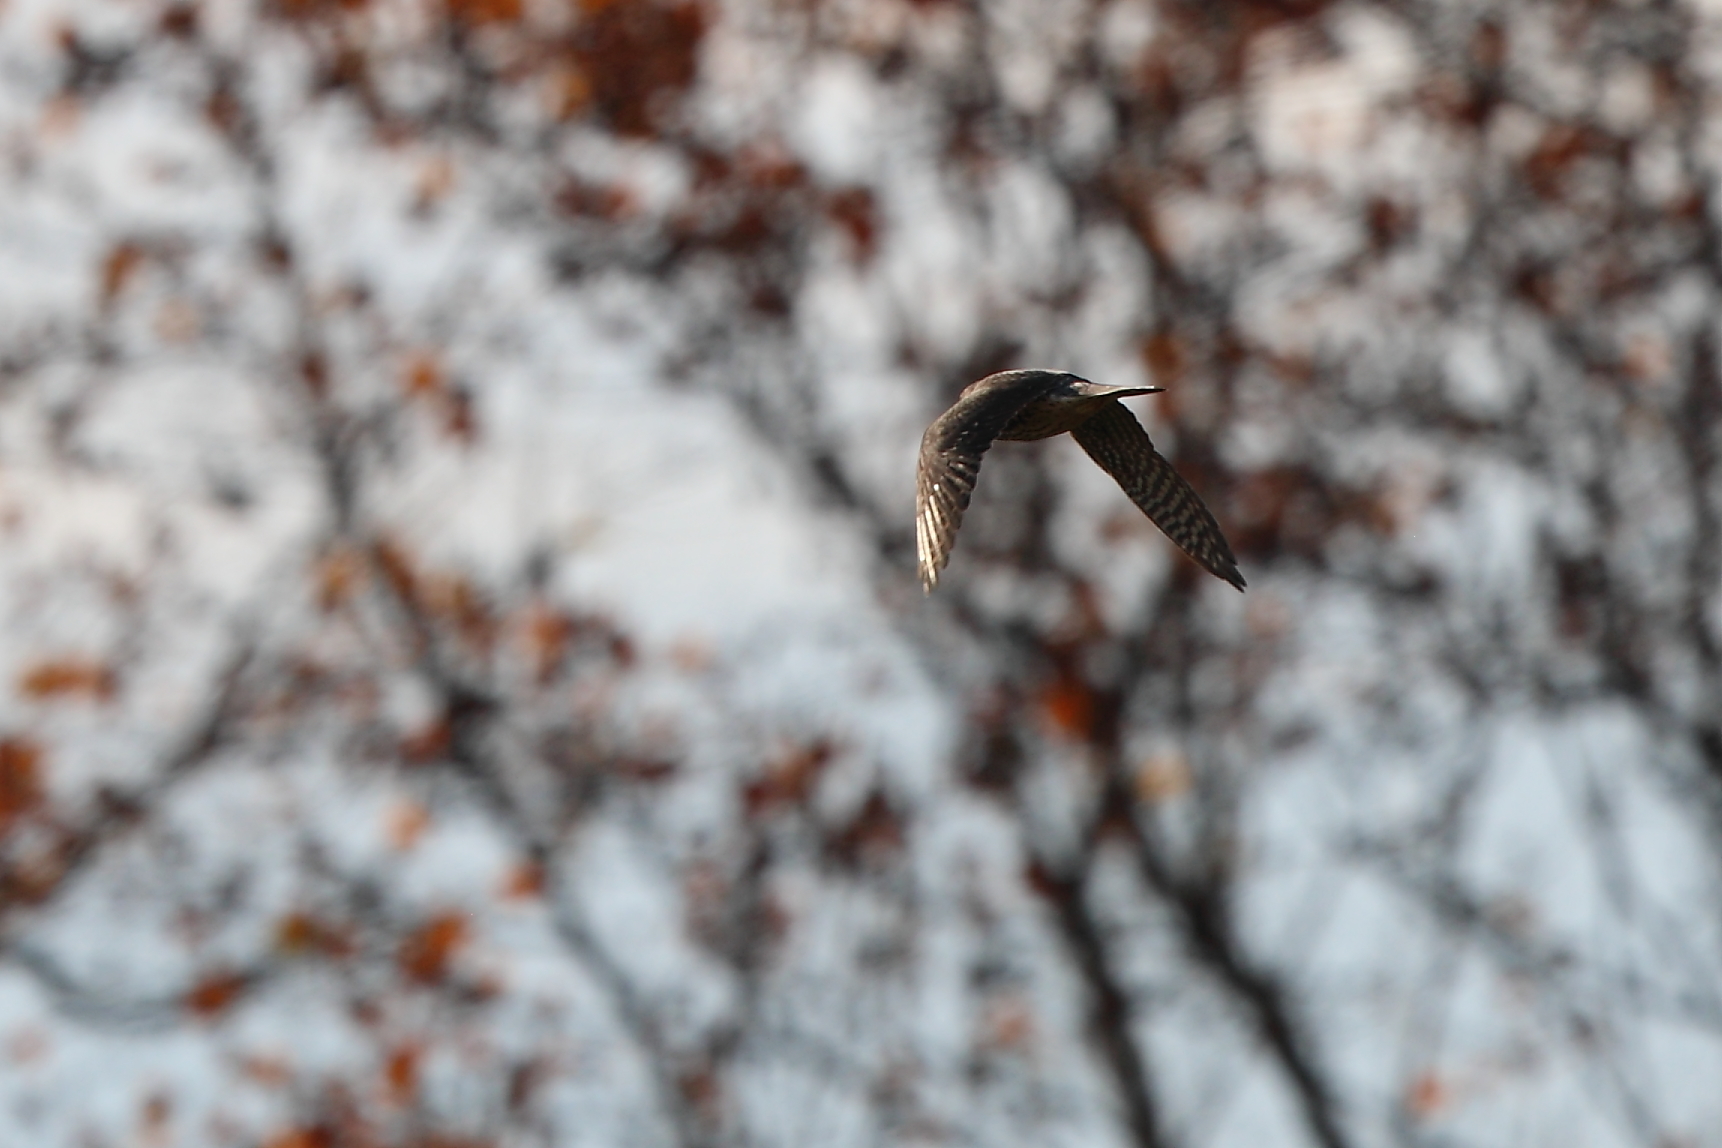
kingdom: Animalia
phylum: Chordata
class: Aves
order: Falconiformes
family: Falconidae
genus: Falco
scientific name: Falco columbarius
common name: Merlin
